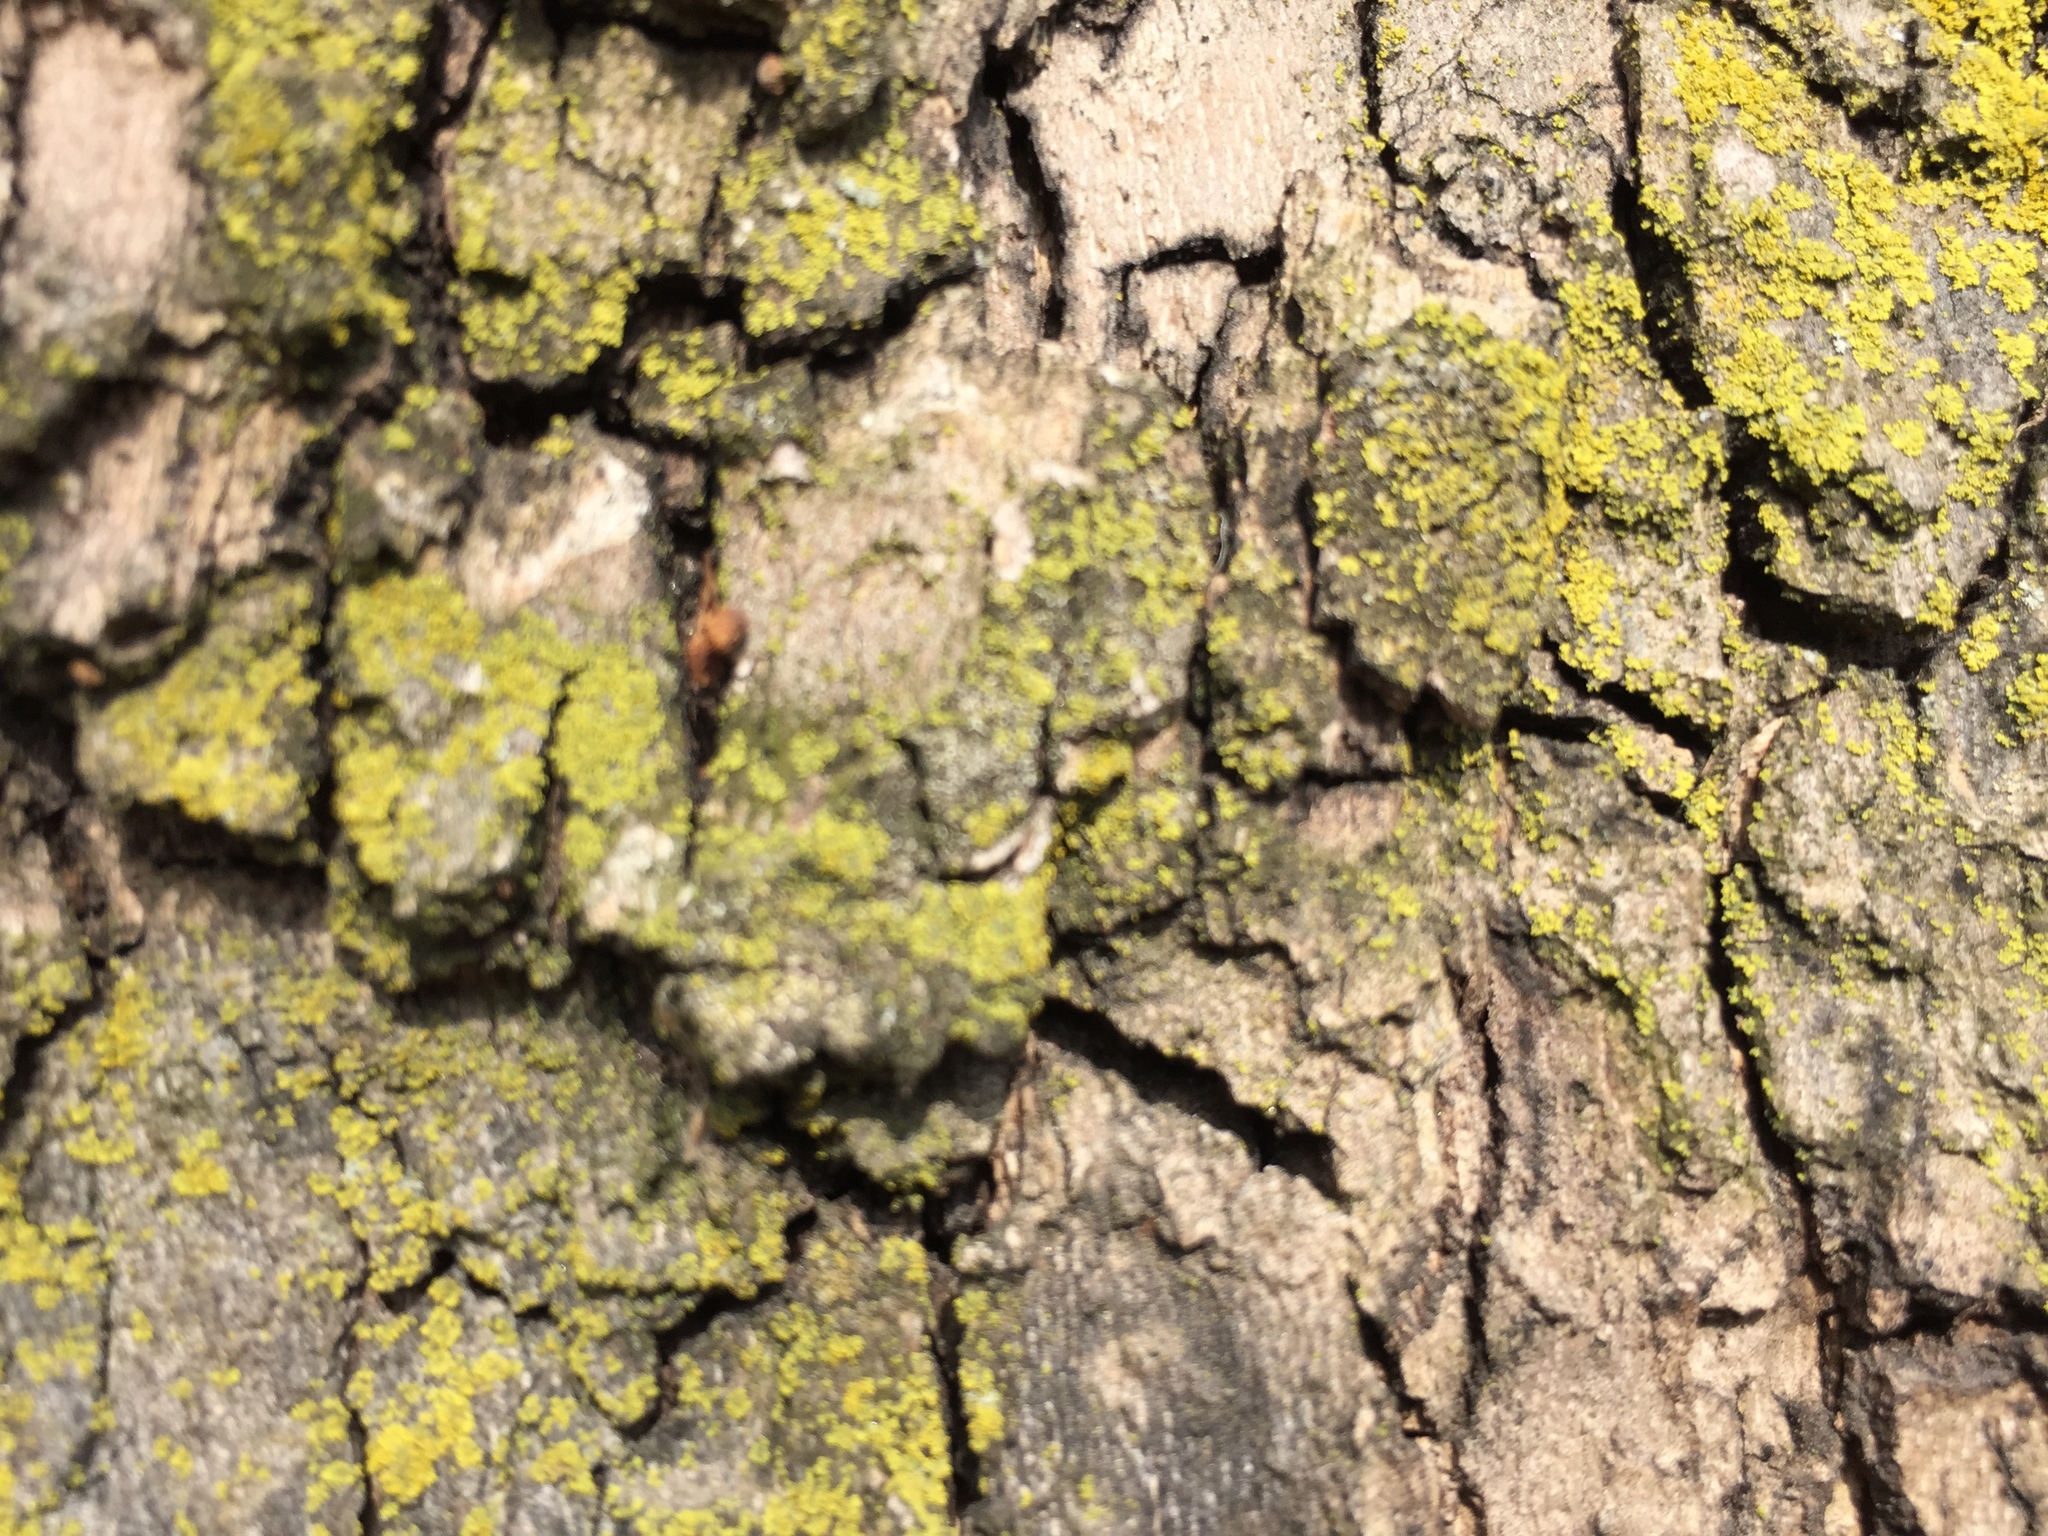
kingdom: Fungi
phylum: Ascomycota
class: Candelariomycetes
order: Candelariales
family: Candelariaceae
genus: Candelaria
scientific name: Candelaria concolor
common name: Candleflame lichen
